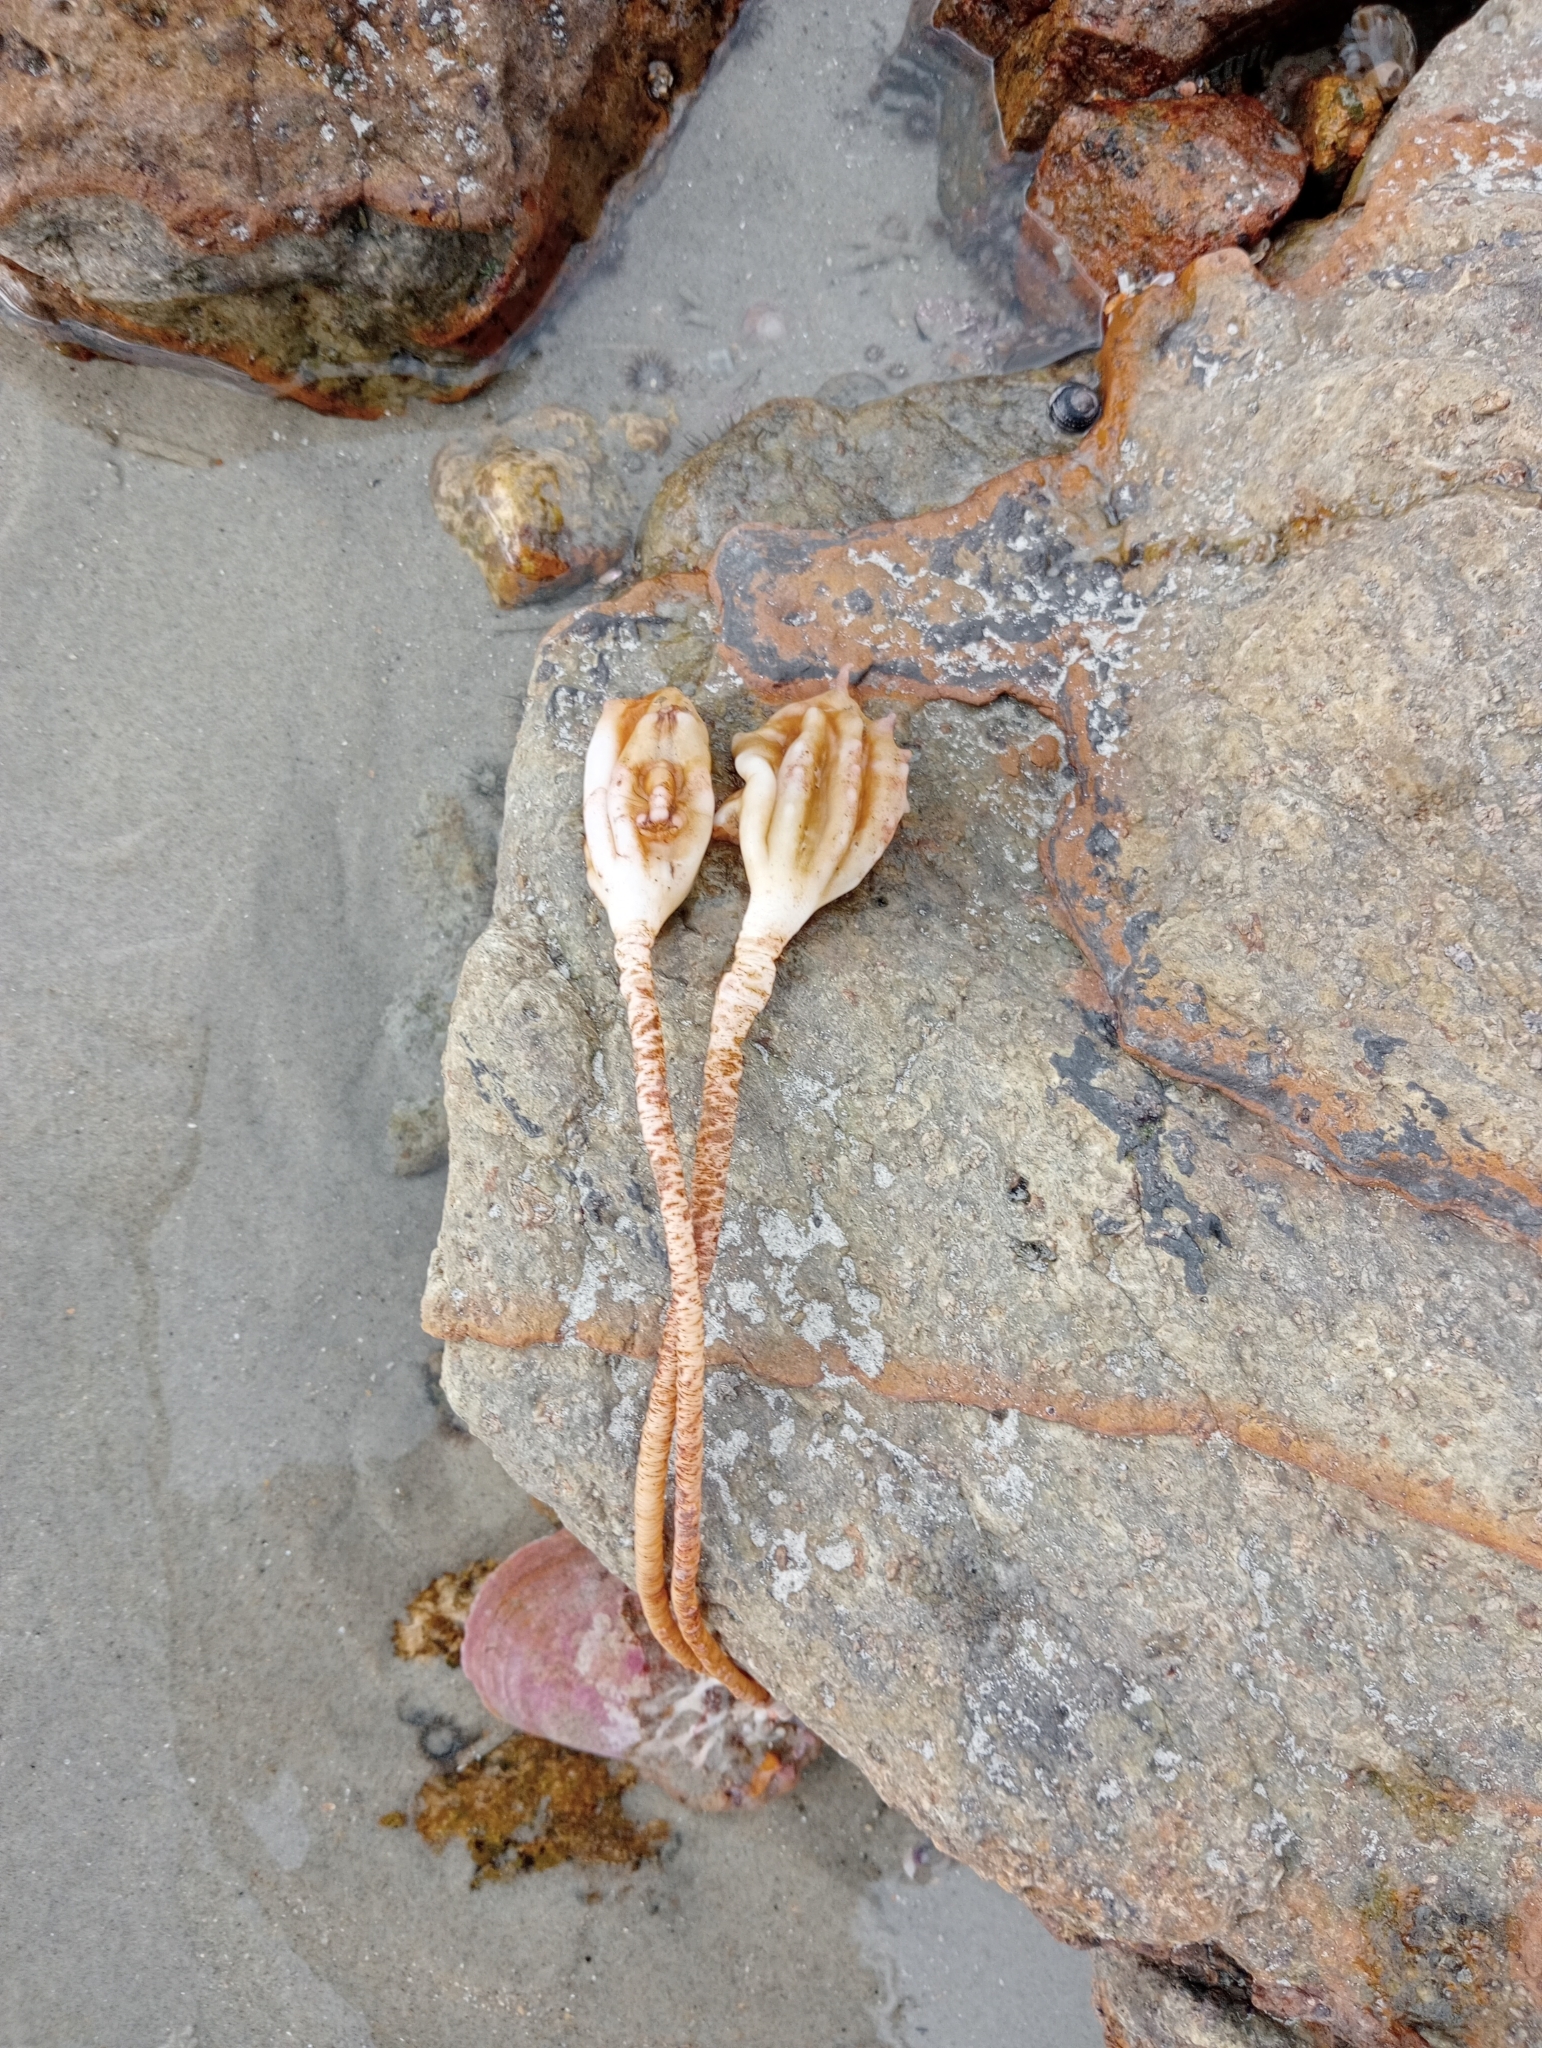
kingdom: Animalia
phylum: Chordata
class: Ascidiacea
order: Stolidobranchia
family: Pyuridae
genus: Pyura
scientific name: Pyura pachydermatina
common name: Sea tulip
